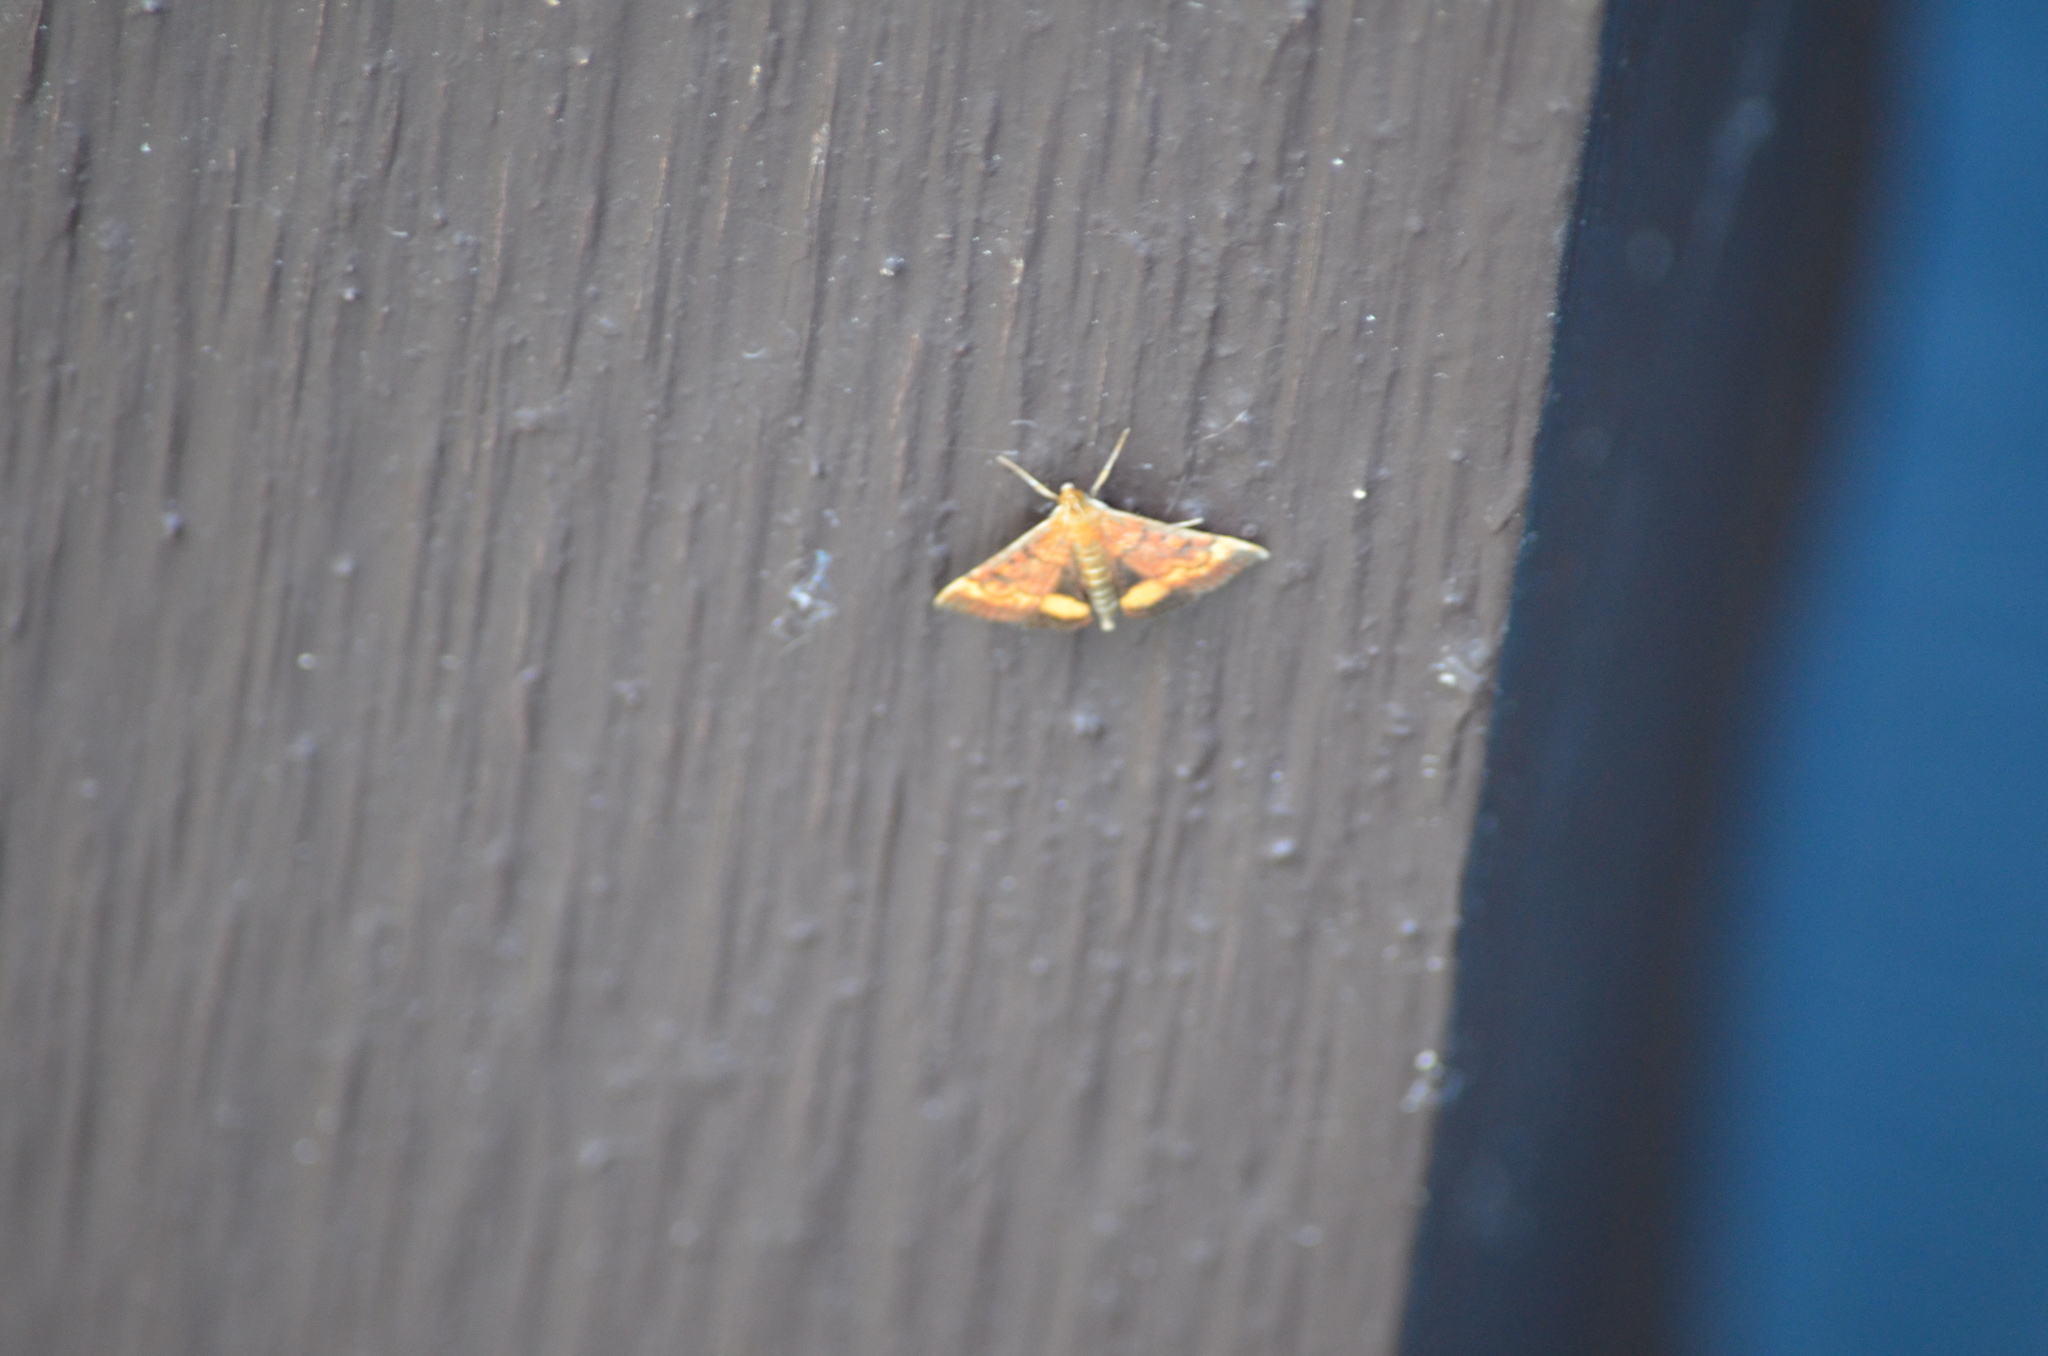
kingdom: Animalia
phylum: Arthropoda
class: Insecta
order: Lepidoptera
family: Crambidae
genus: Pyrausta
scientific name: Pyrausta californicalis
